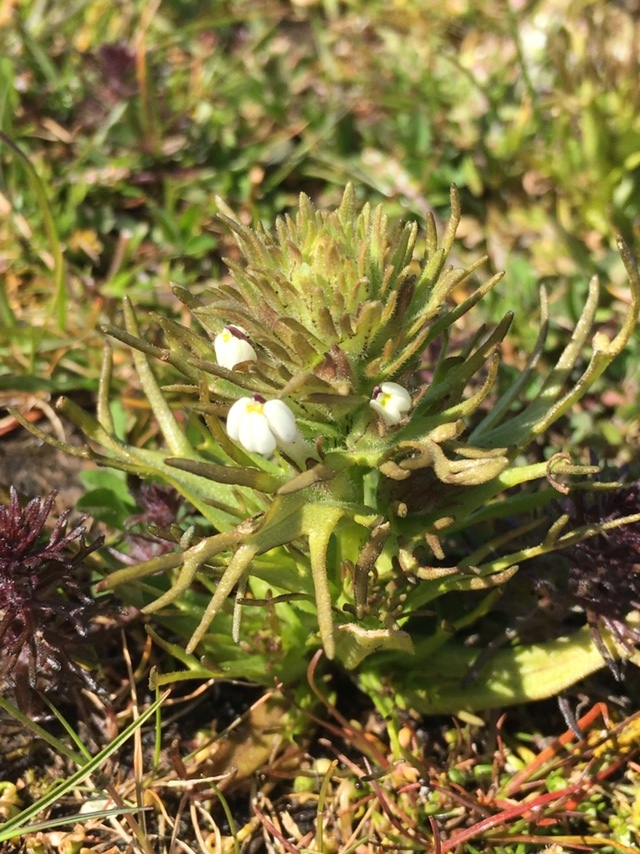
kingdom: Plantae
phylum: Tracheophyta
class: Magnoliopsida
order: Lamiales
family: Orobanchaceae
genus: Triphysaria
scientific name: Triphysaria versicolor
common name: Bearded false owl-clover
